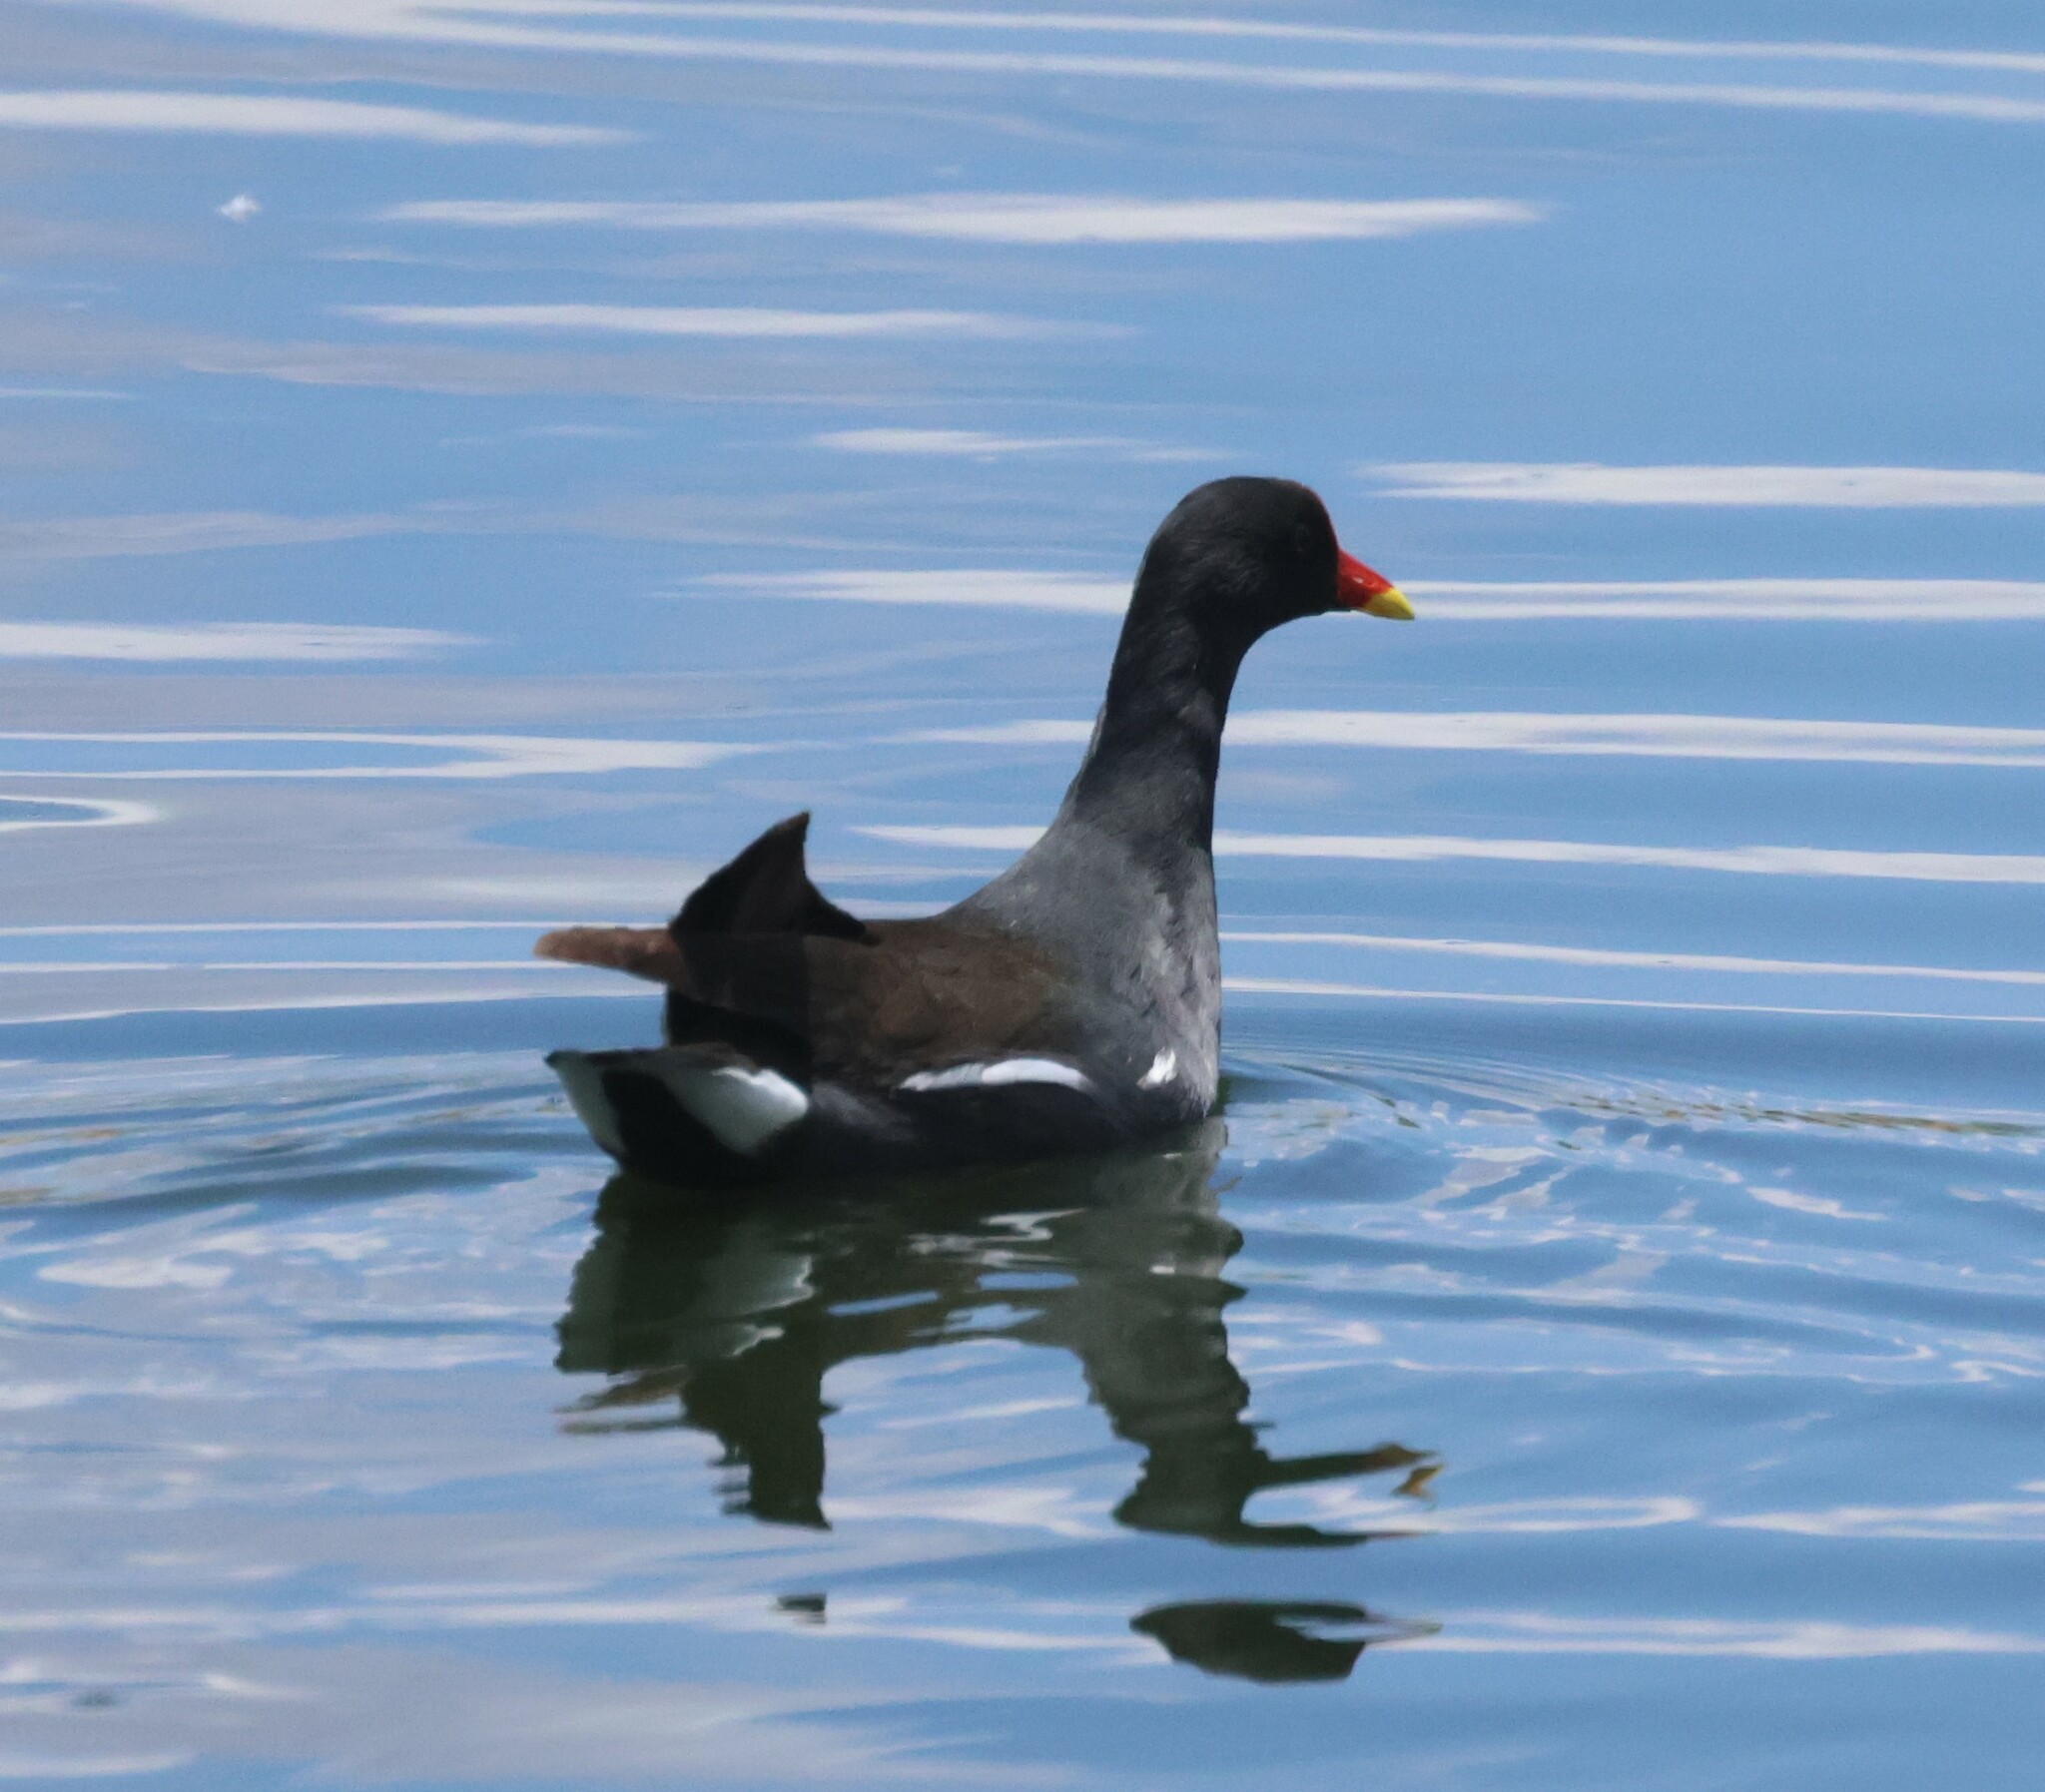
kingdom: Animalia
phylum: Chordata
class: Aves
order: Gruiformes
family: Rallidae
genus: Gallinula
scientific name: Gallinula chloropus
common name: Common moorhen
